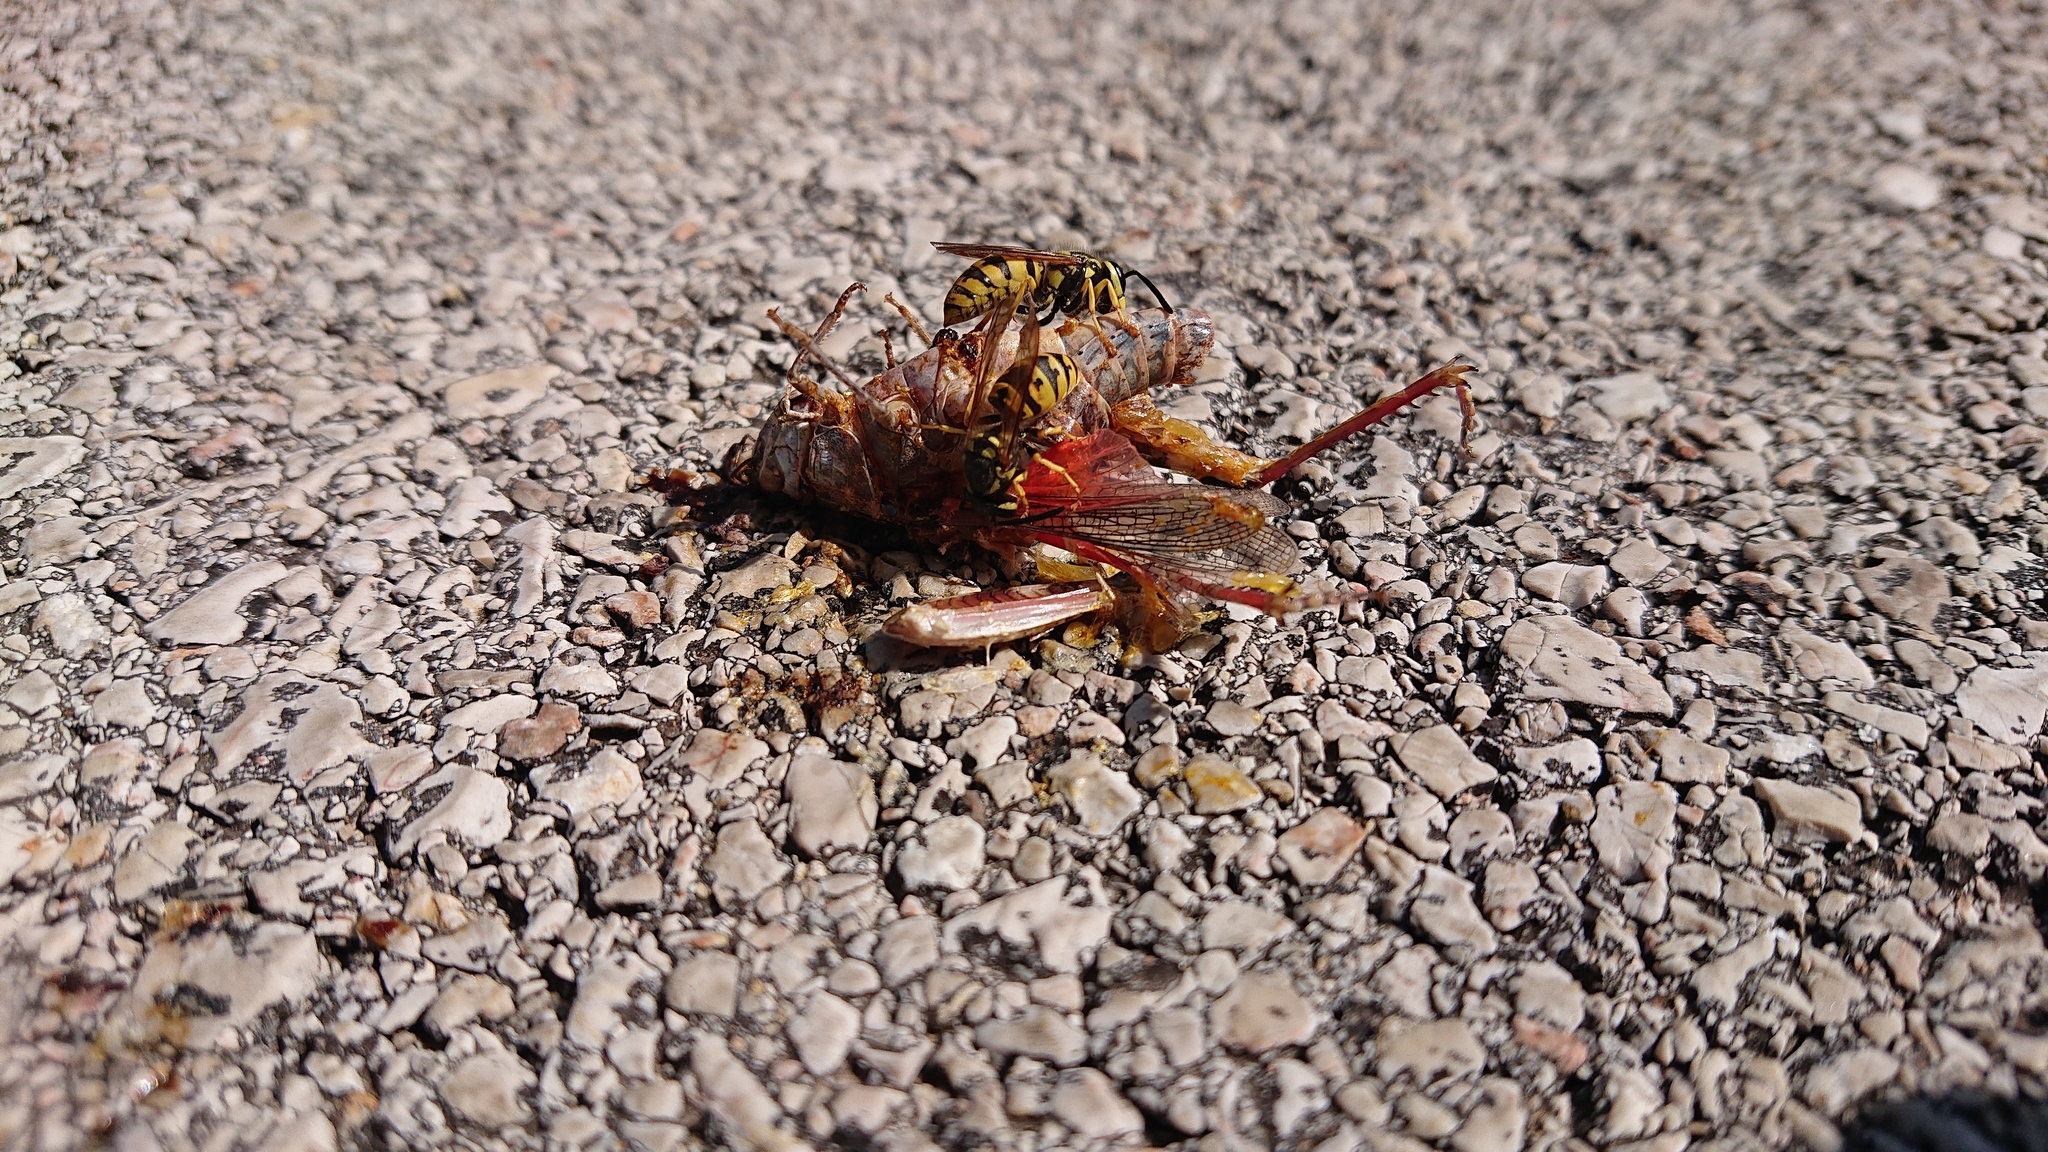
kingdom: Animalia
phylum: Arthropoda
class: Insecta
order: Hymenoptera
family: Vespidae
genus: Vespula
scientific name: Vespula germanica
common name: German wasp
